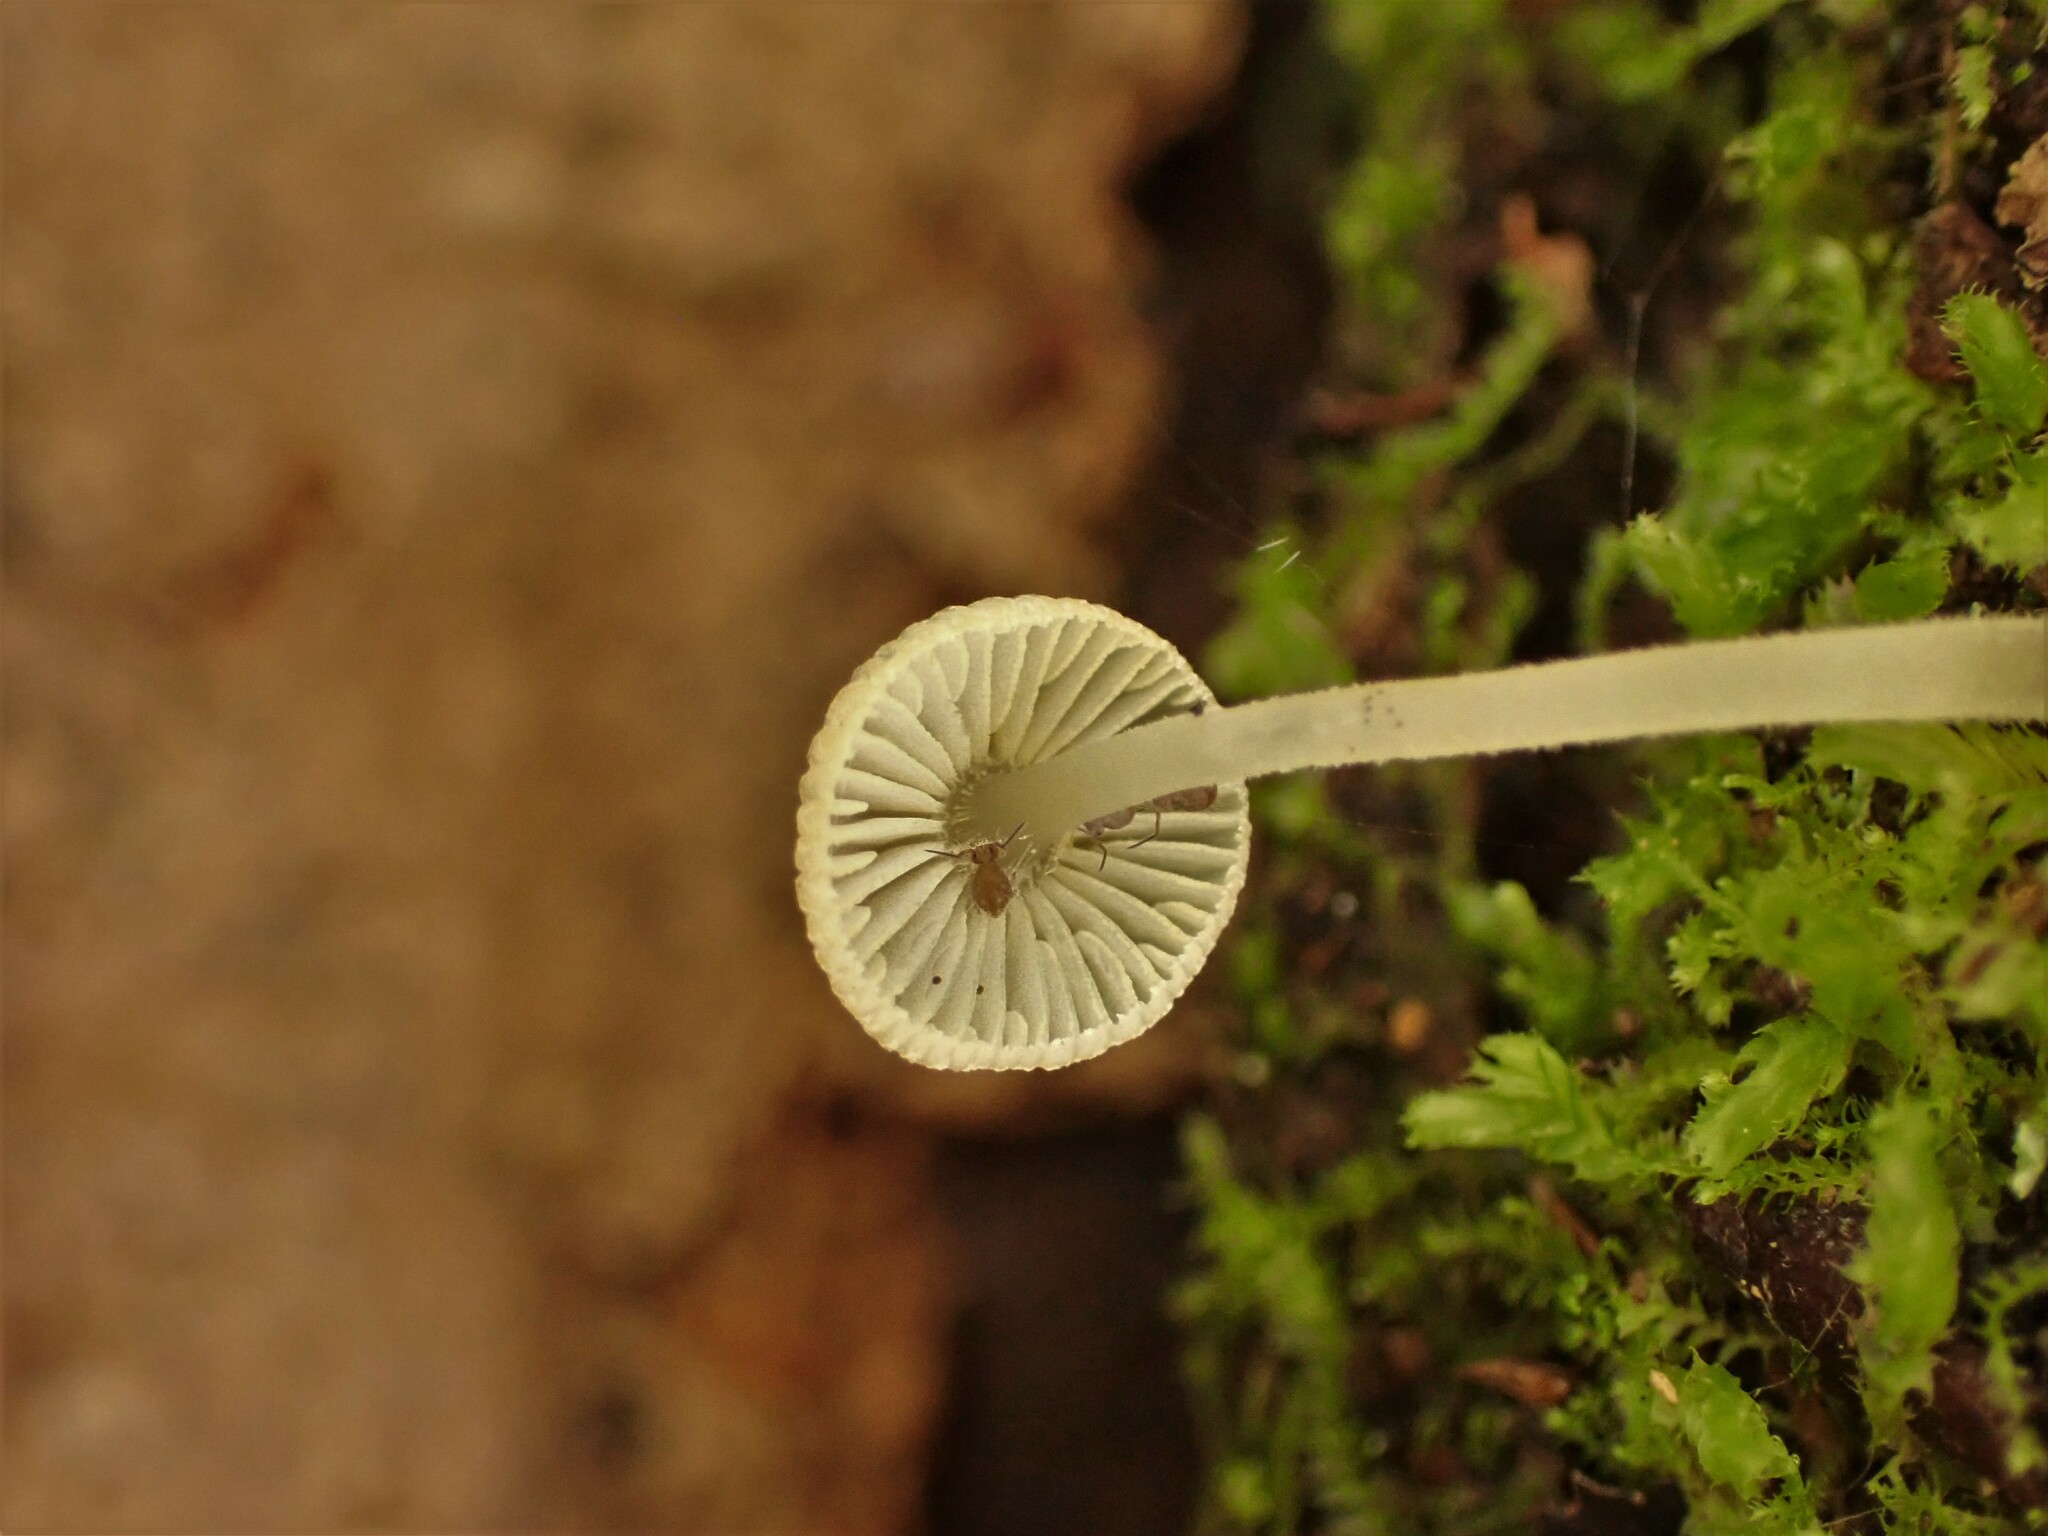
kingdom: Fungi
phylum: Basidiomycota
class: Agaricomycetes
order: Agaricales
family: Mycenaceae
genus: Mycena
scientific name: Mycena interrupta
